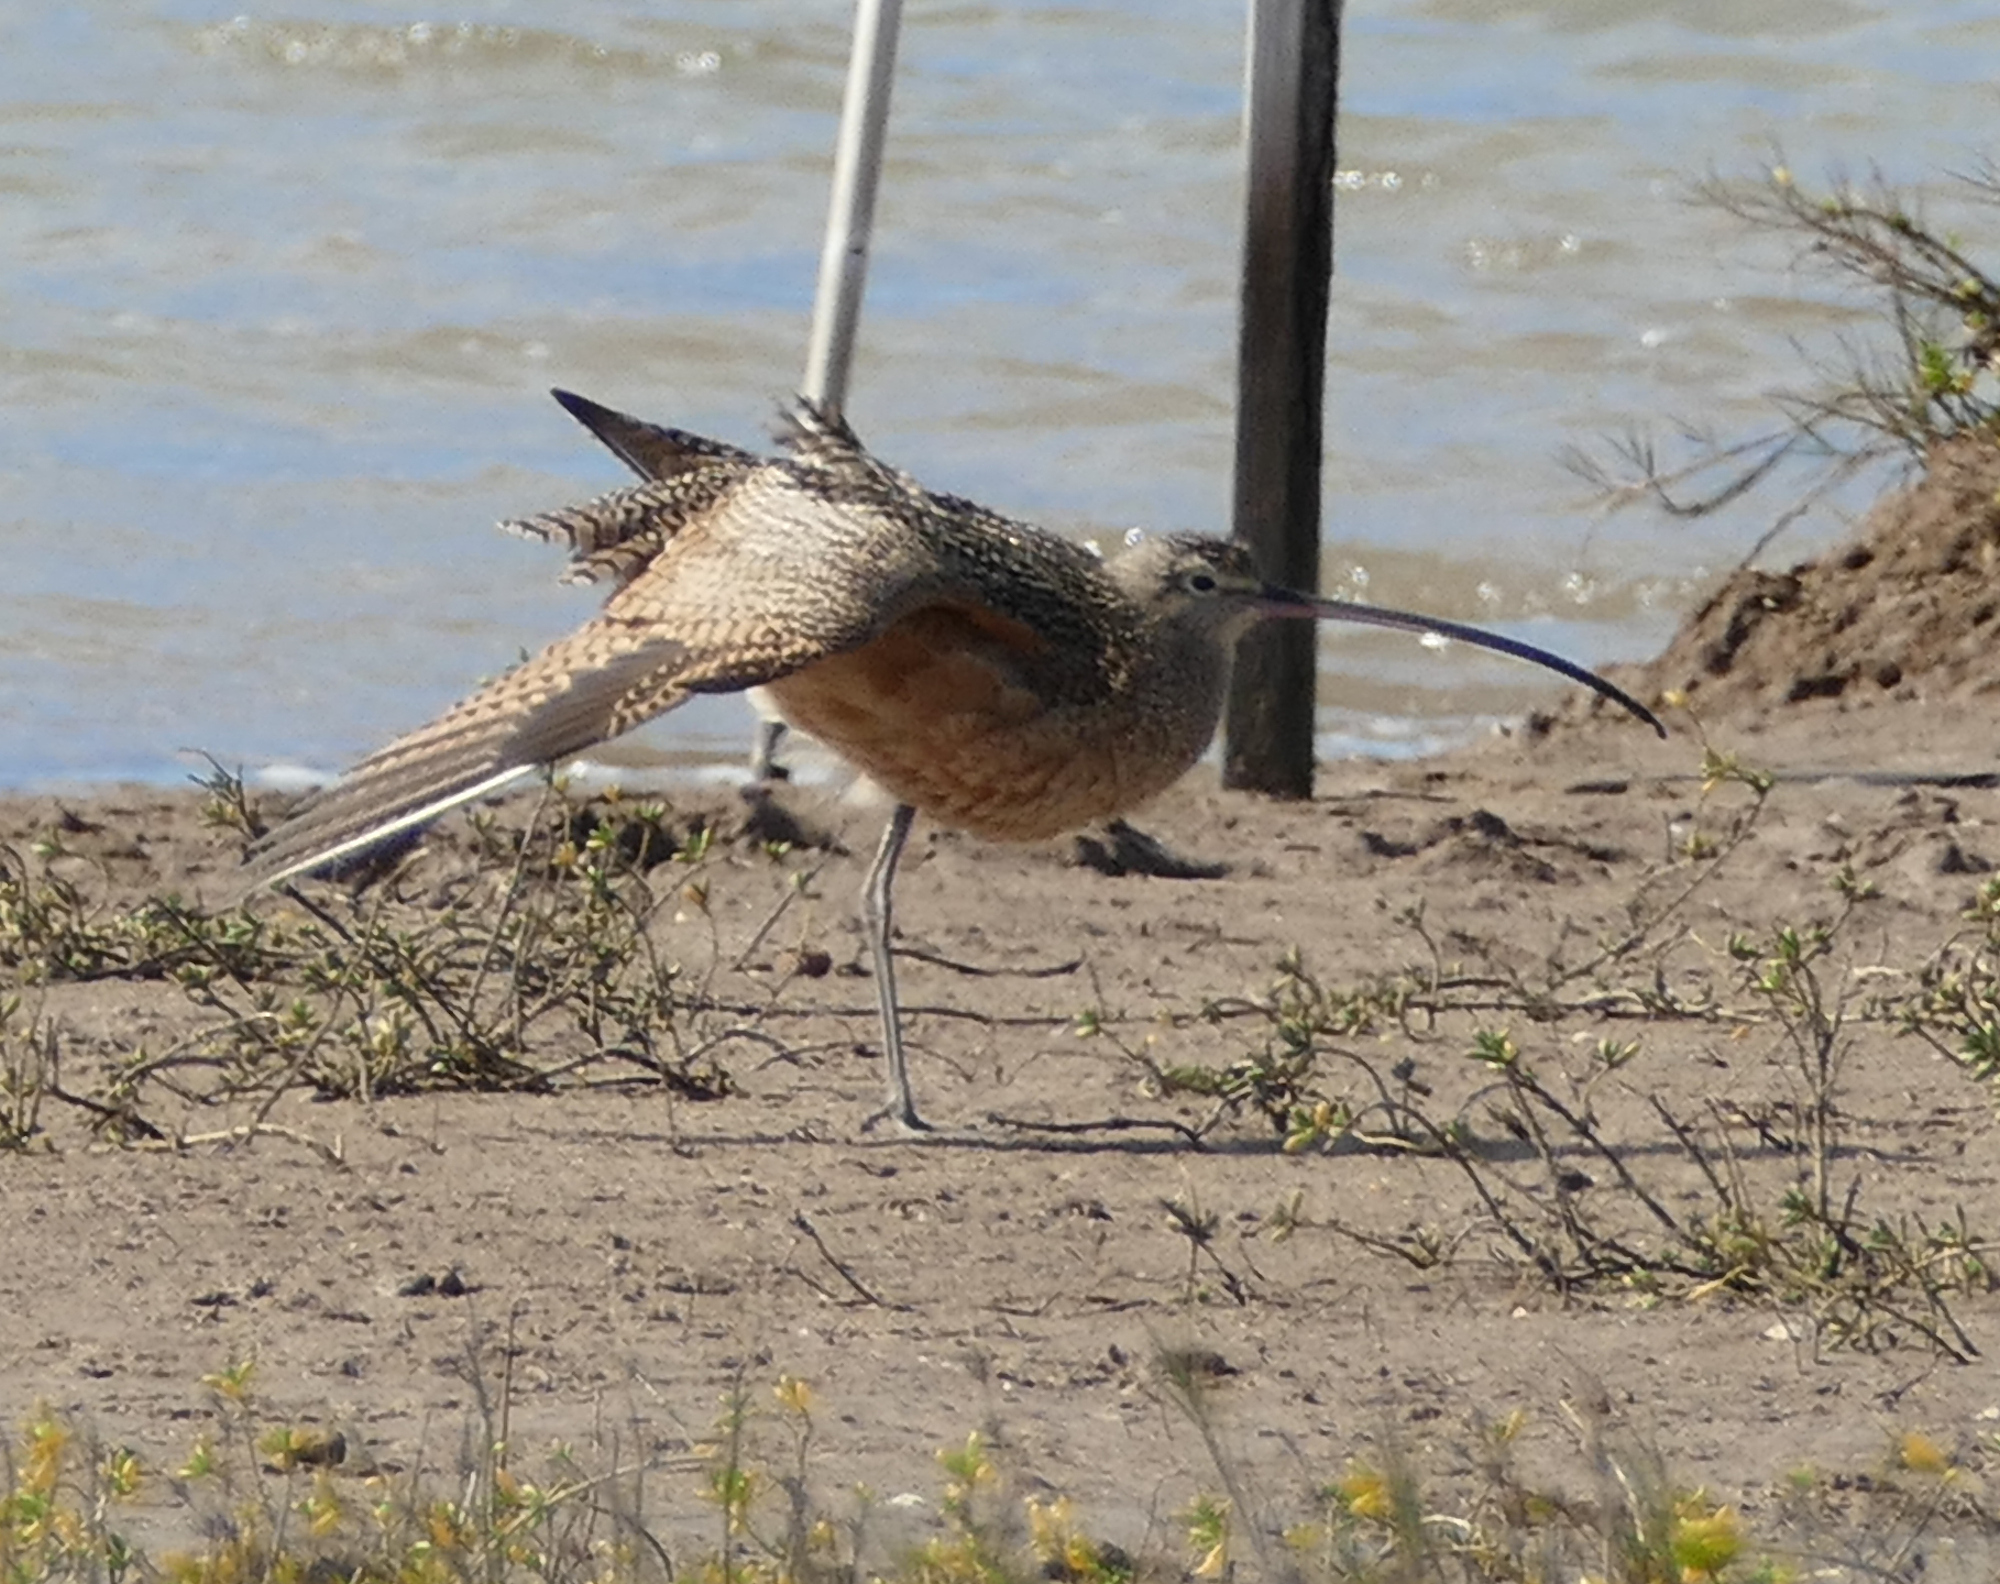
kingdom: Animalia
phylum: Chordata
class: Aves
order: Charadriiformes
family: Scolopacidae
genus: Numenius
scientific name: Numenius americanus
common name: Long-billed curlew
